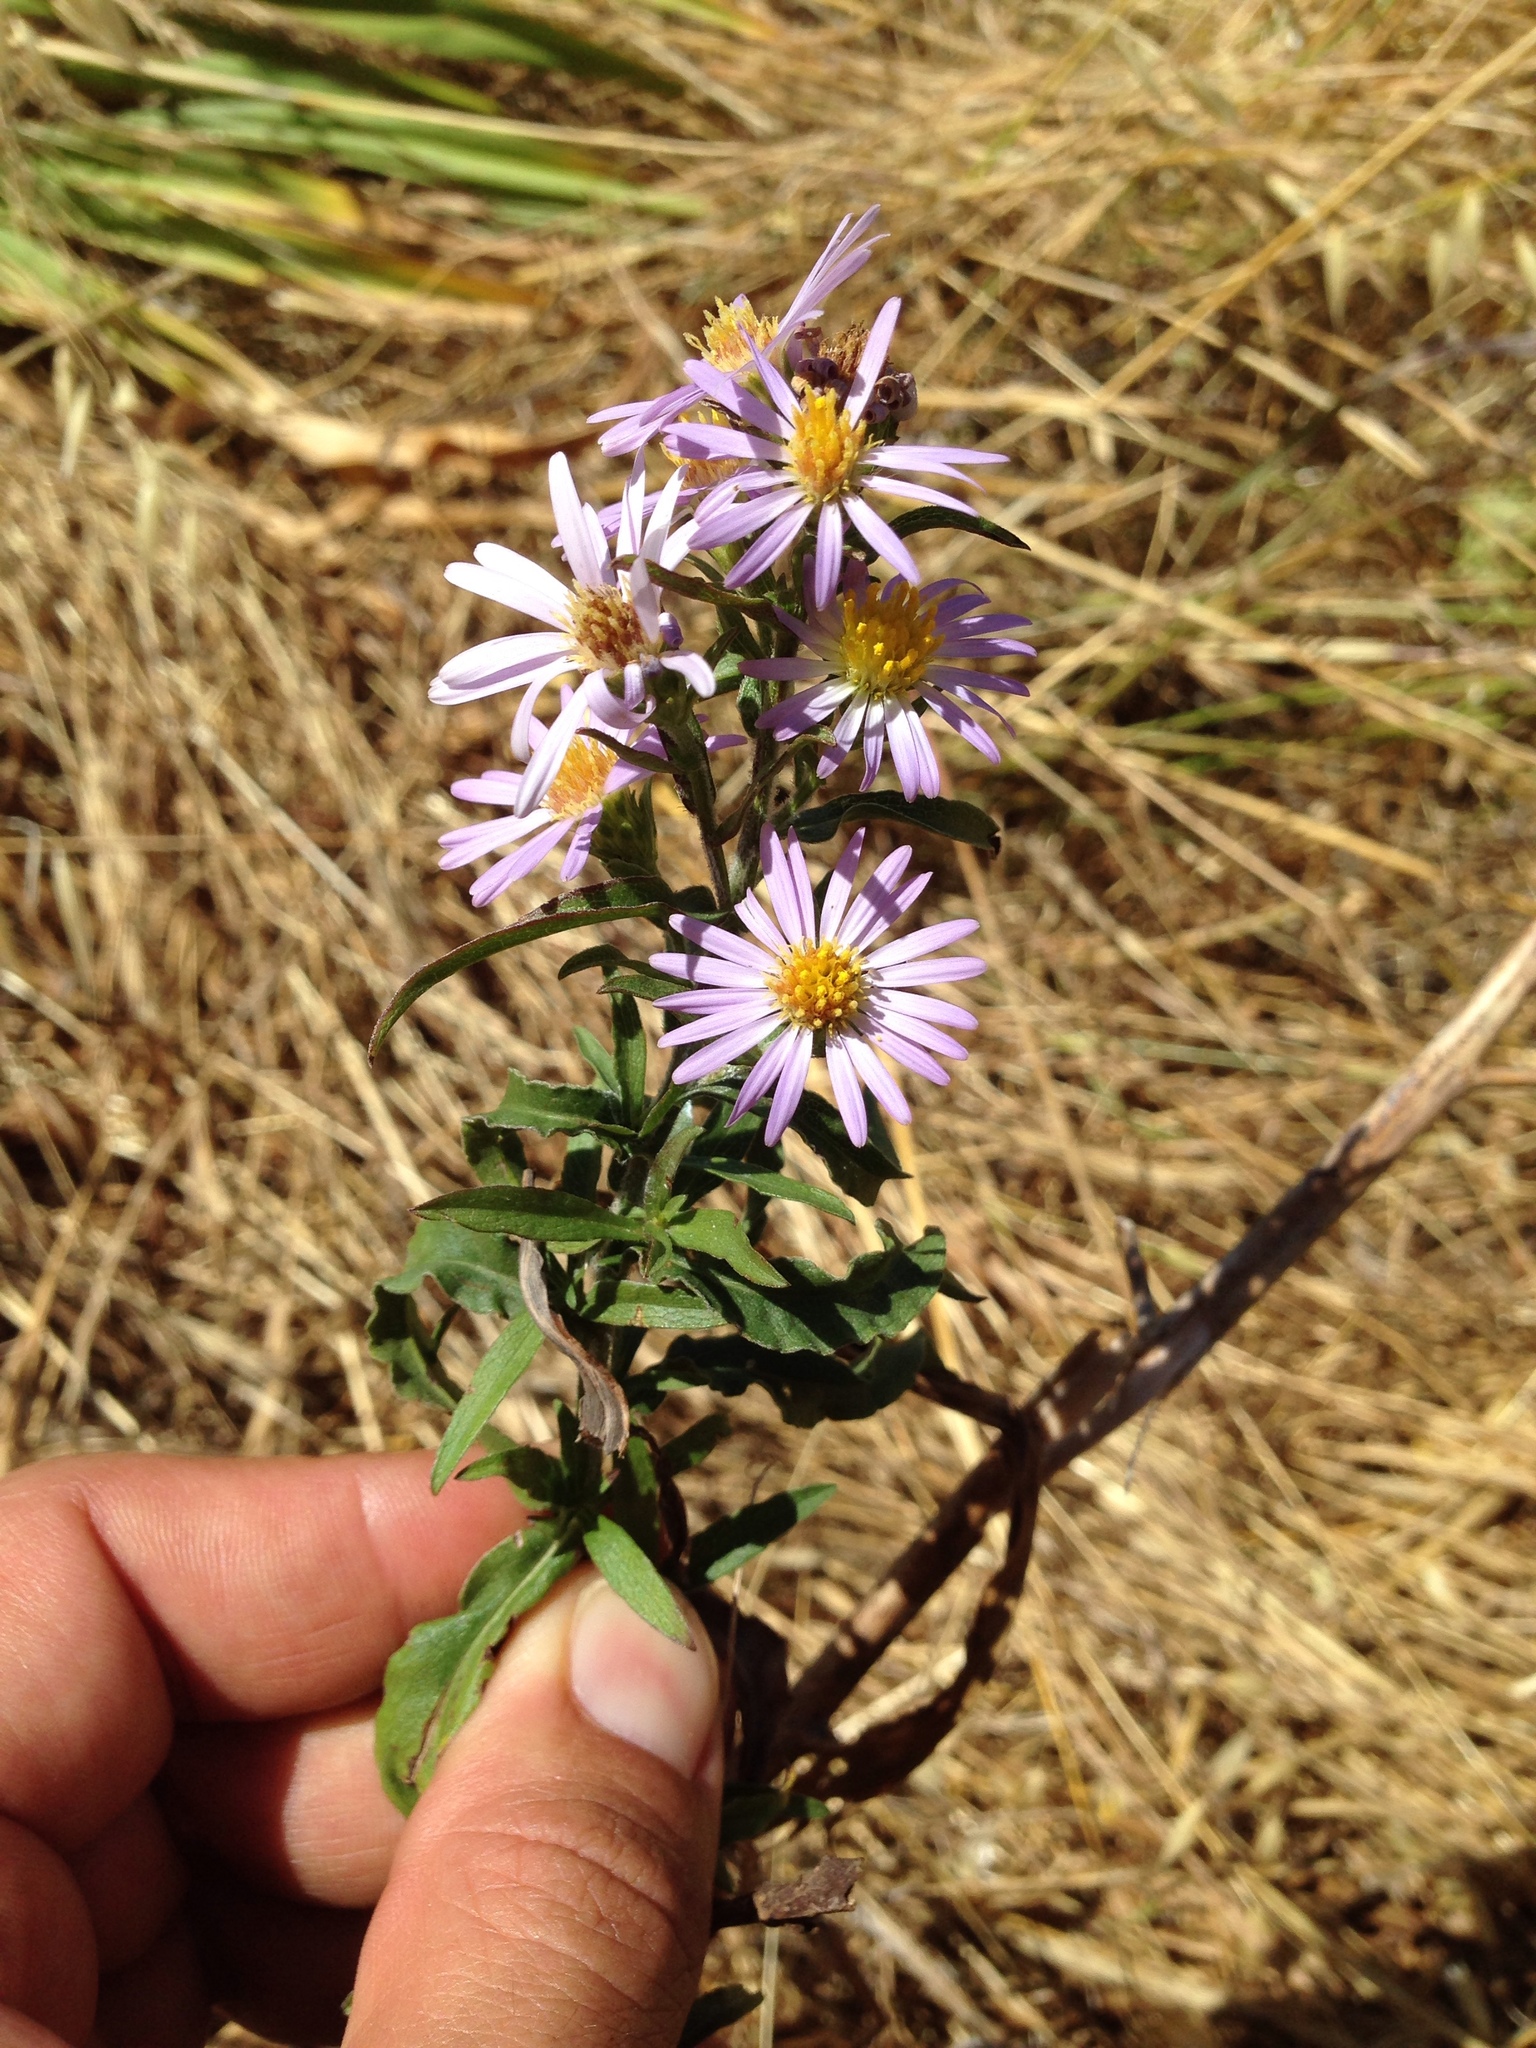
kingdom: Plantae
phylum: Tracheophyta
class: Magnoliopsida
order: Asterales
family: Asteraceae
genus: Symphyotrichum
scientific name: Symphyotrichum chilense
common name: Pacific aster
